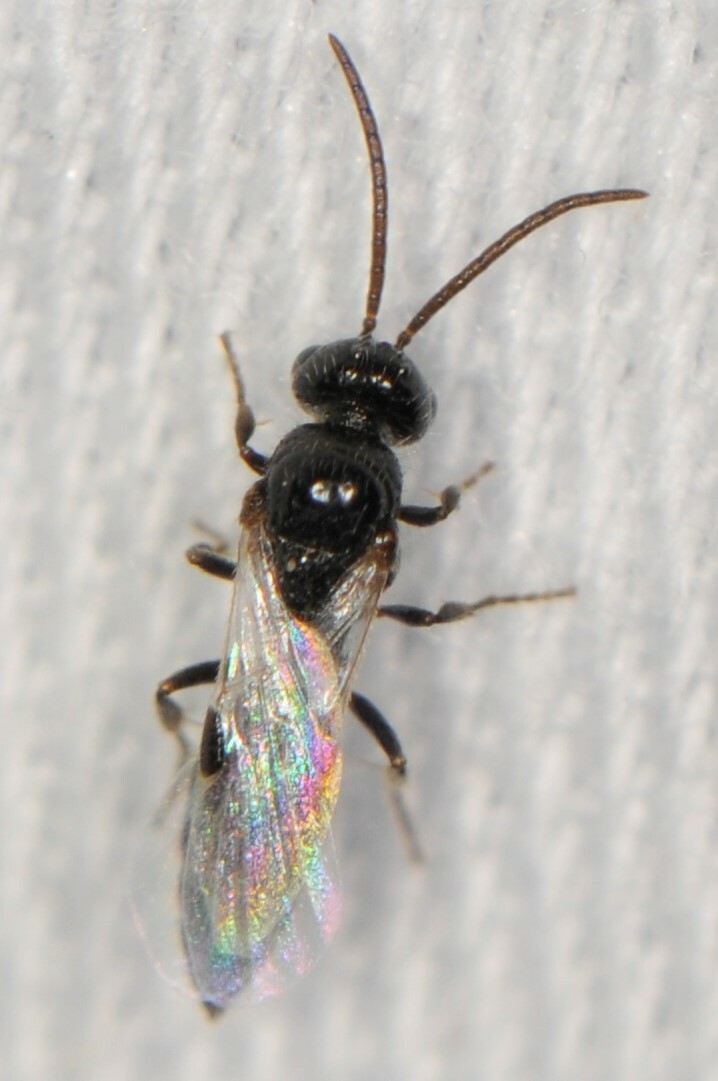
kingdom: Animalia
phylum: Arthropoda
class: Insecta
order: Hymenoptera
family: Tiphiidae
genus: Stilbopogon
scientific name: Stilbopogon
